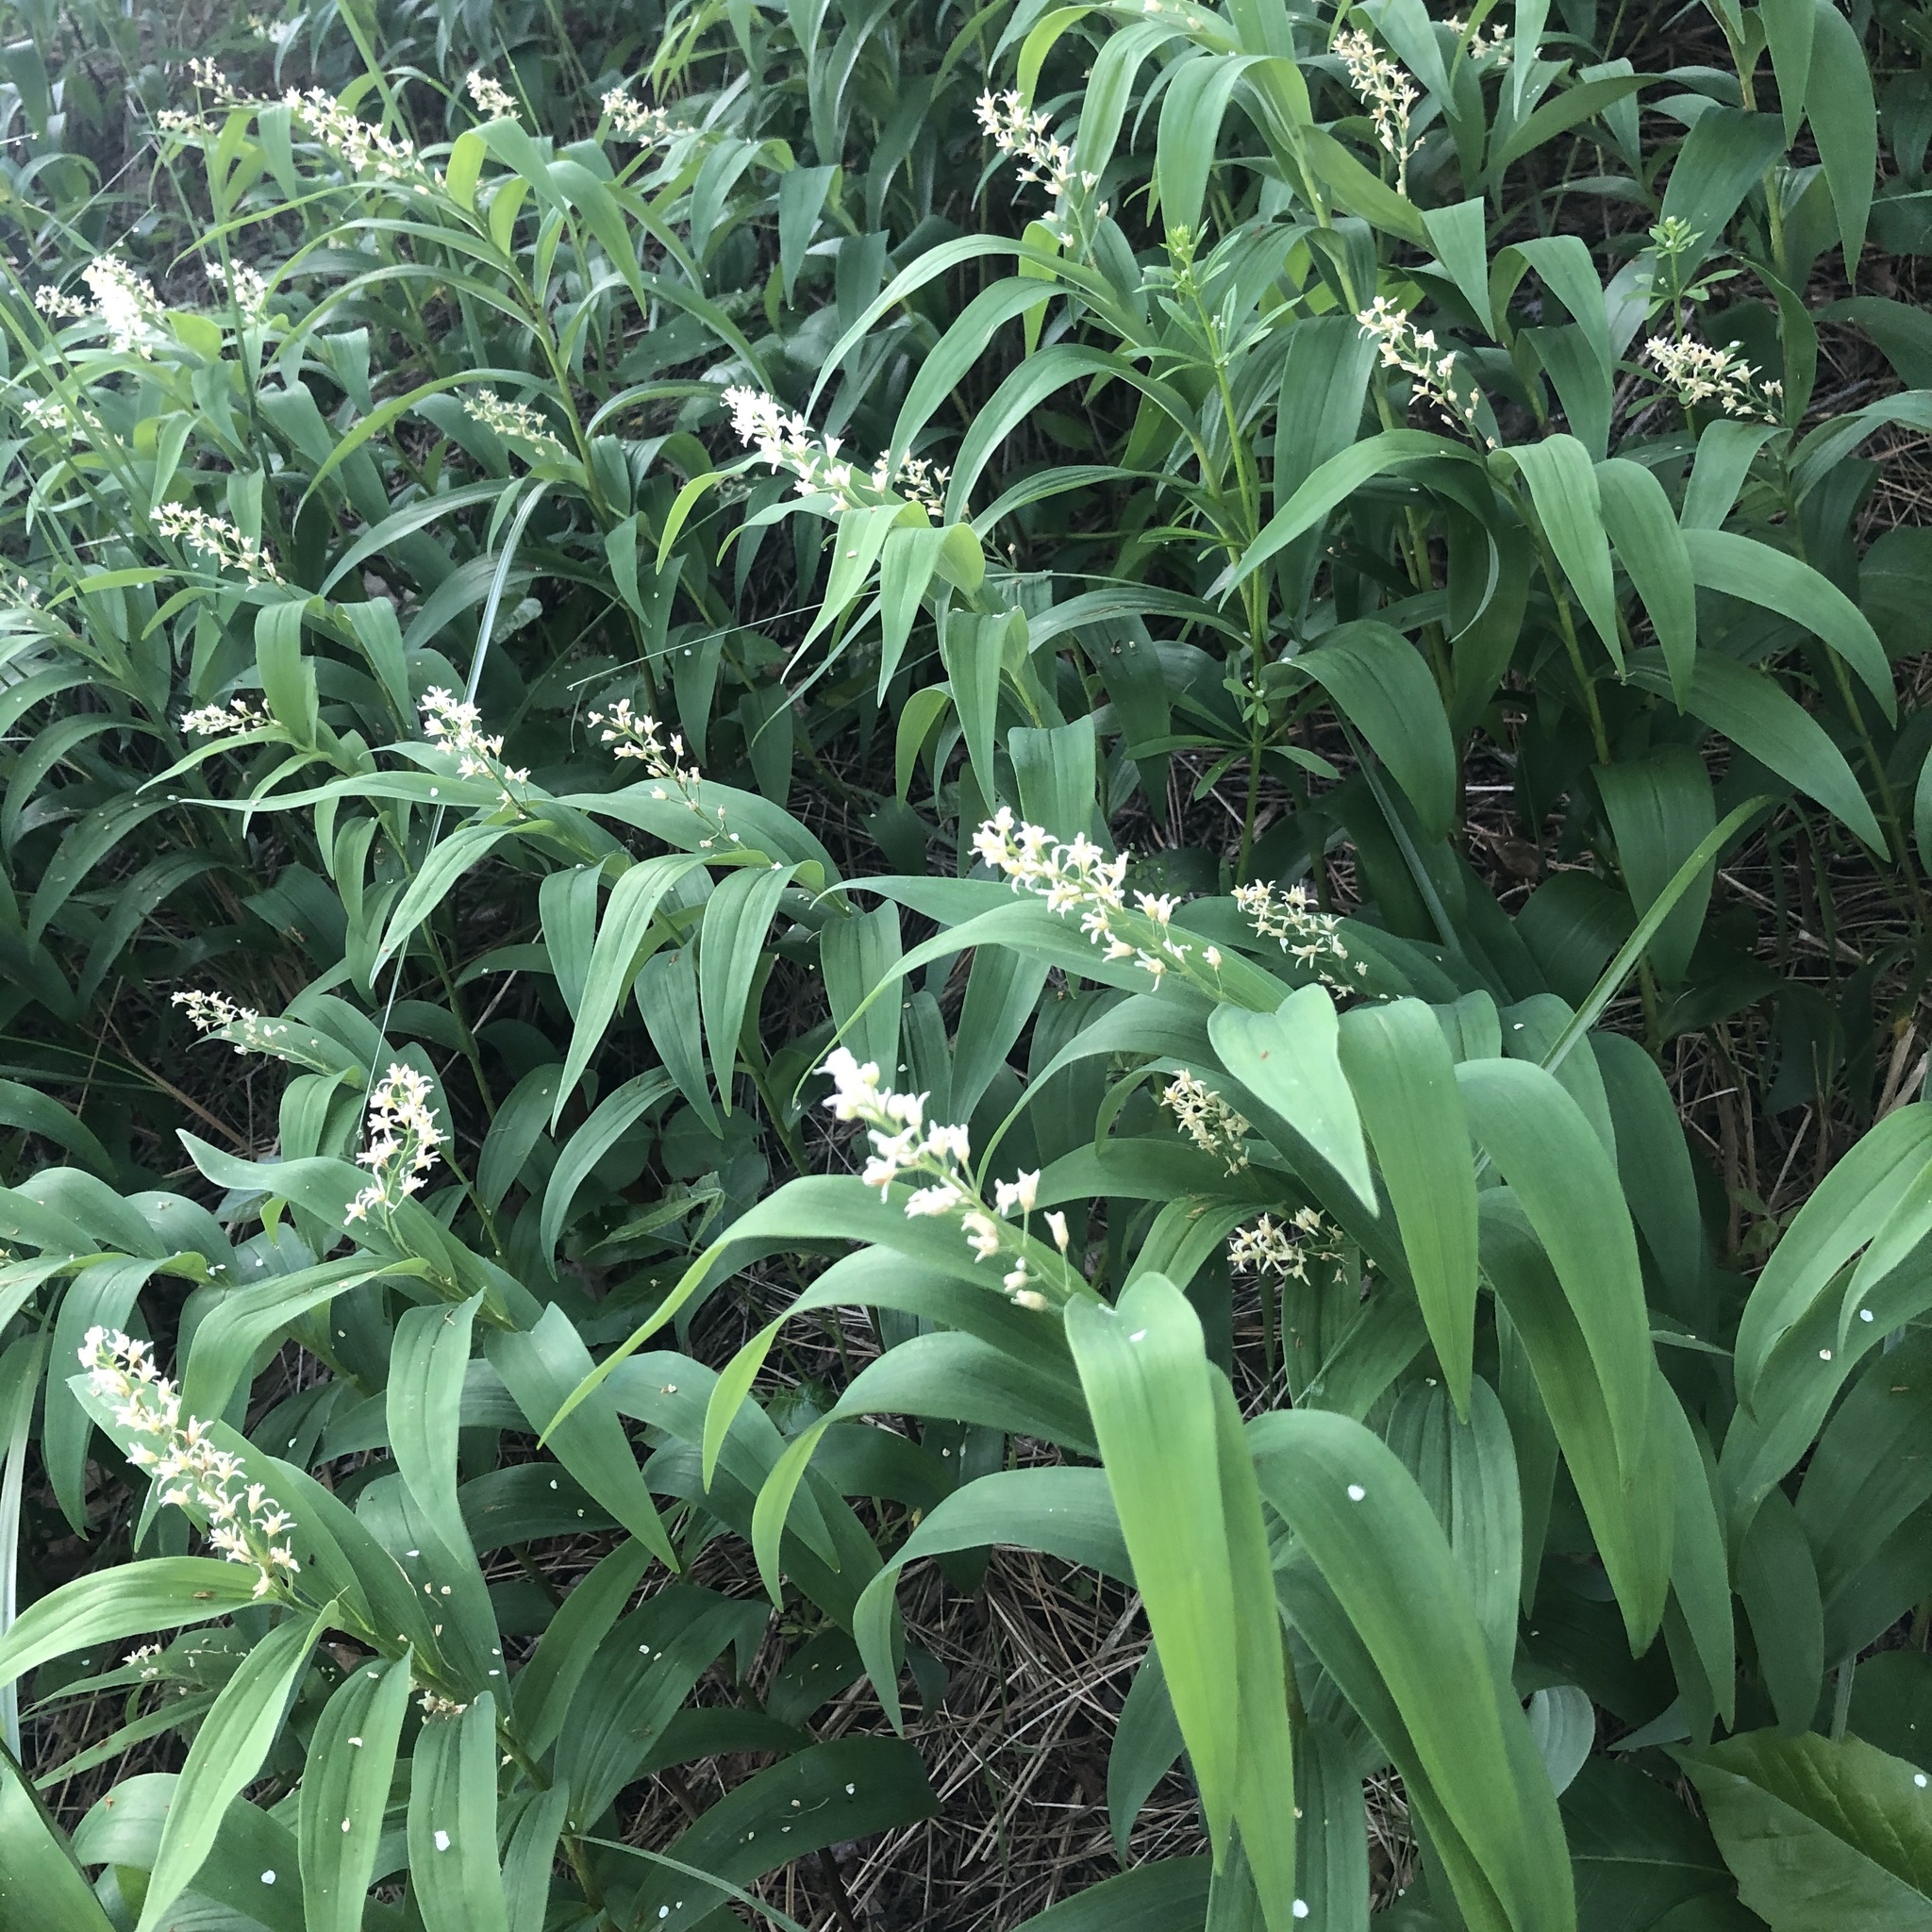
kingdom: Plantae
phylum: Tracheophyta
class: Liliopsida
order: Asparagales
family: Asparagaceae
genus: Maianthemum
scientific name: Maianthemum stellatum
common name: Little false solomon's seal
